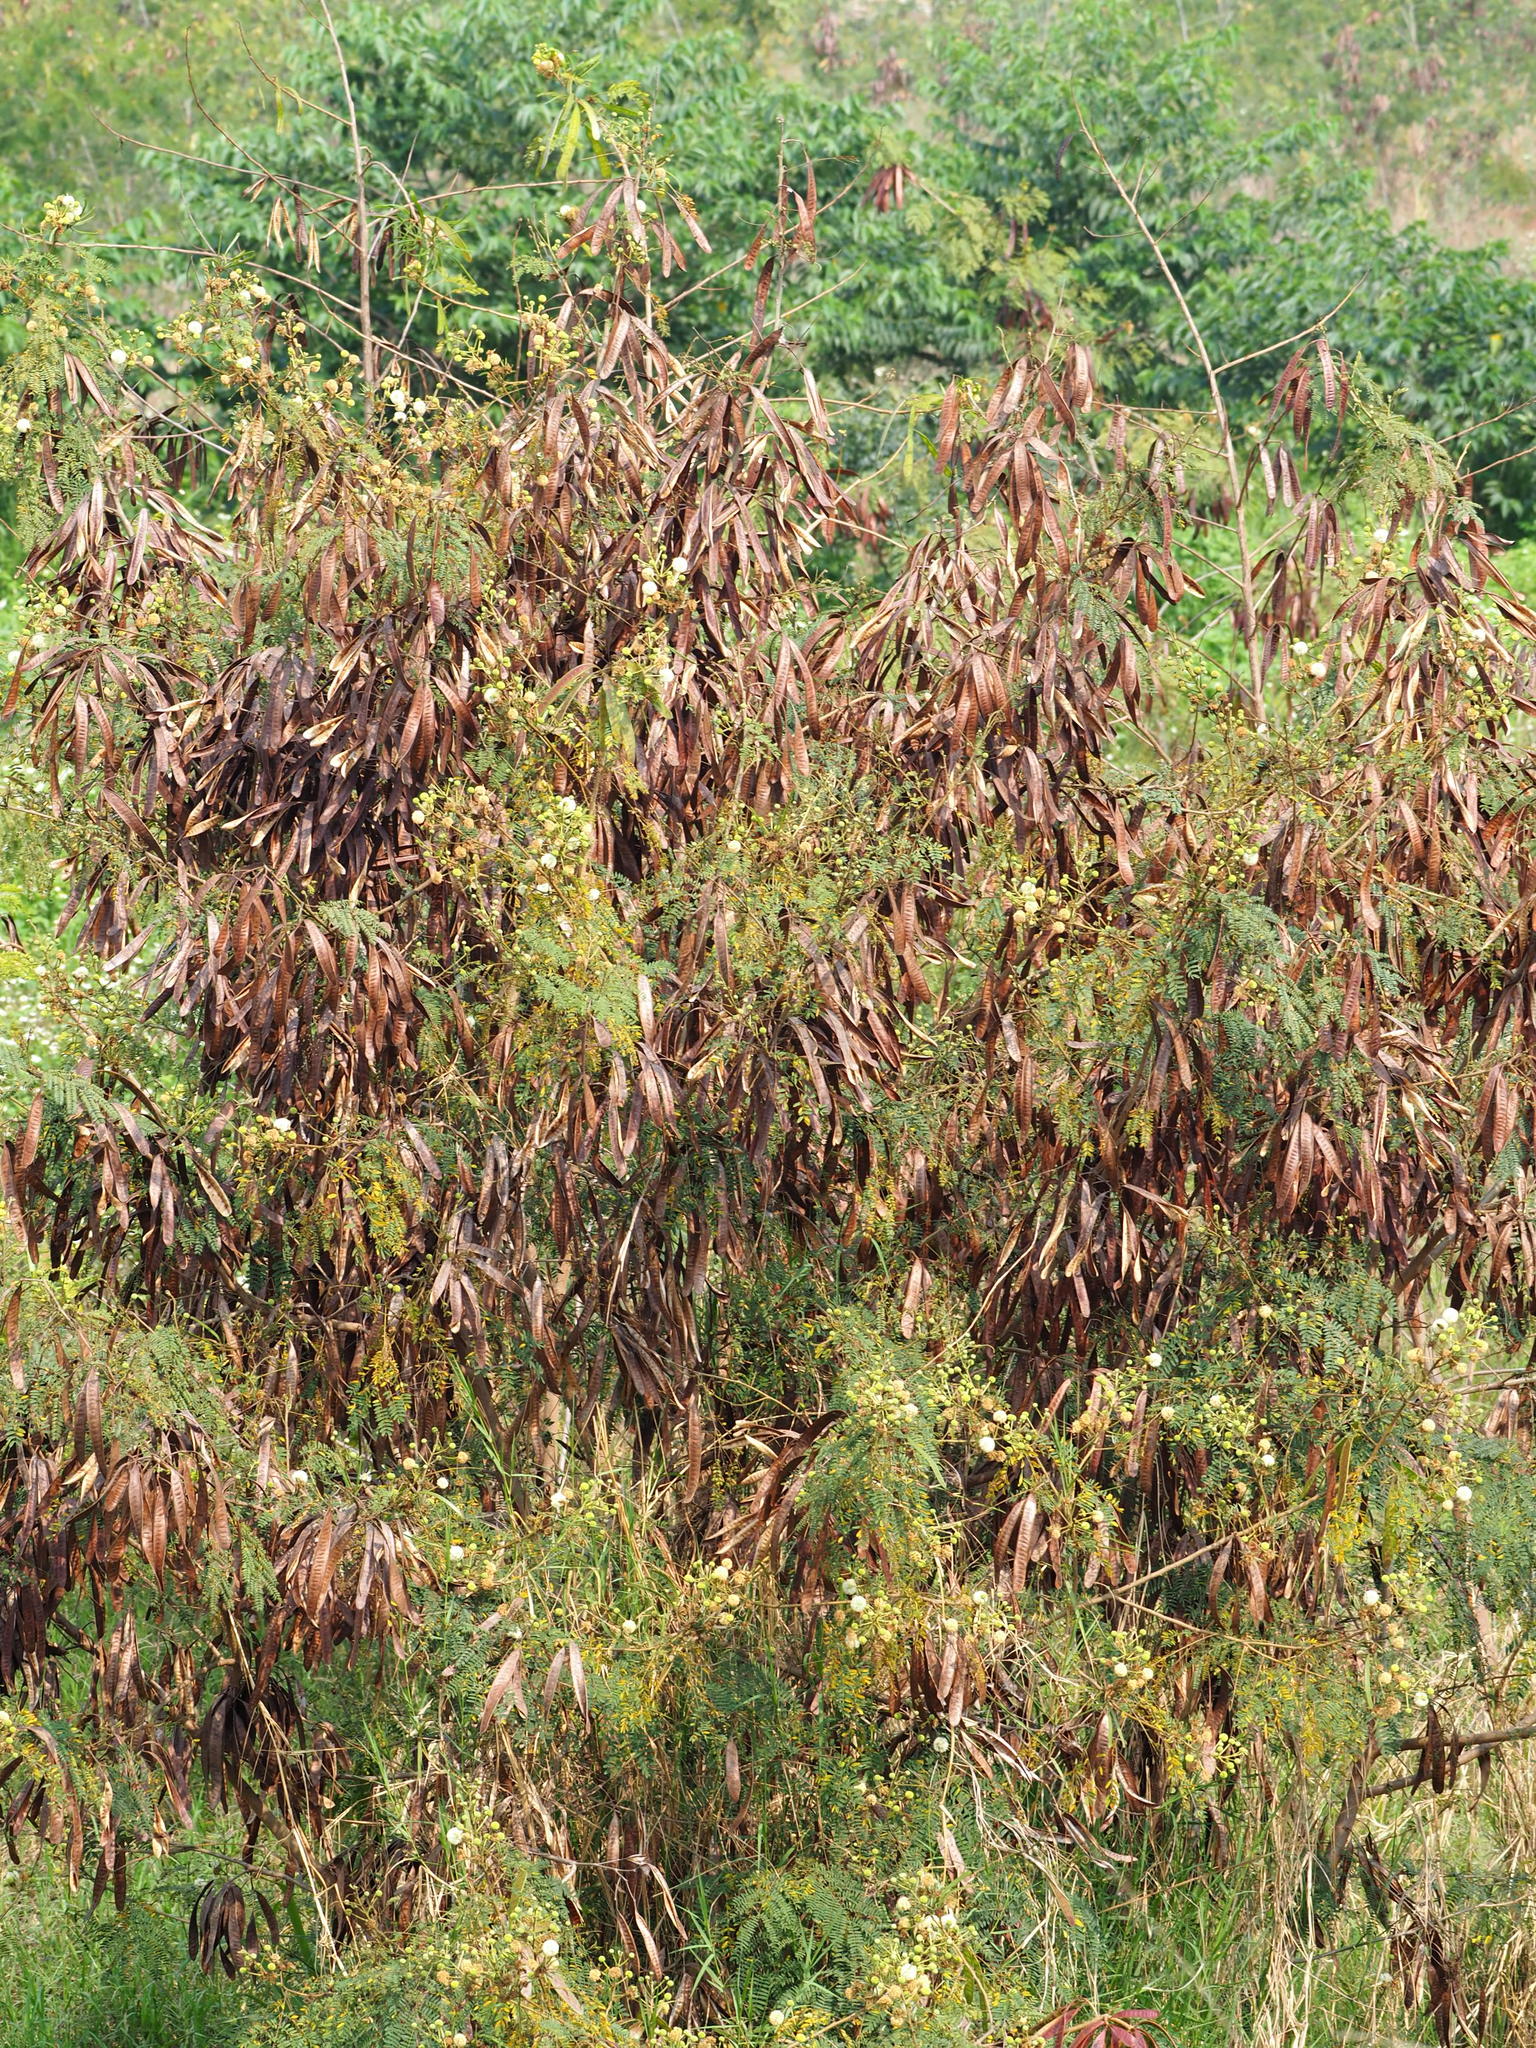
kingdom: Plantae
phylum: Tracheophyta
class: Magnoliopsida
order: Fabales
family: Fabaceae
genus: Leucaena
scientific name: Leucaena leucocephala
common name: White leadtree
